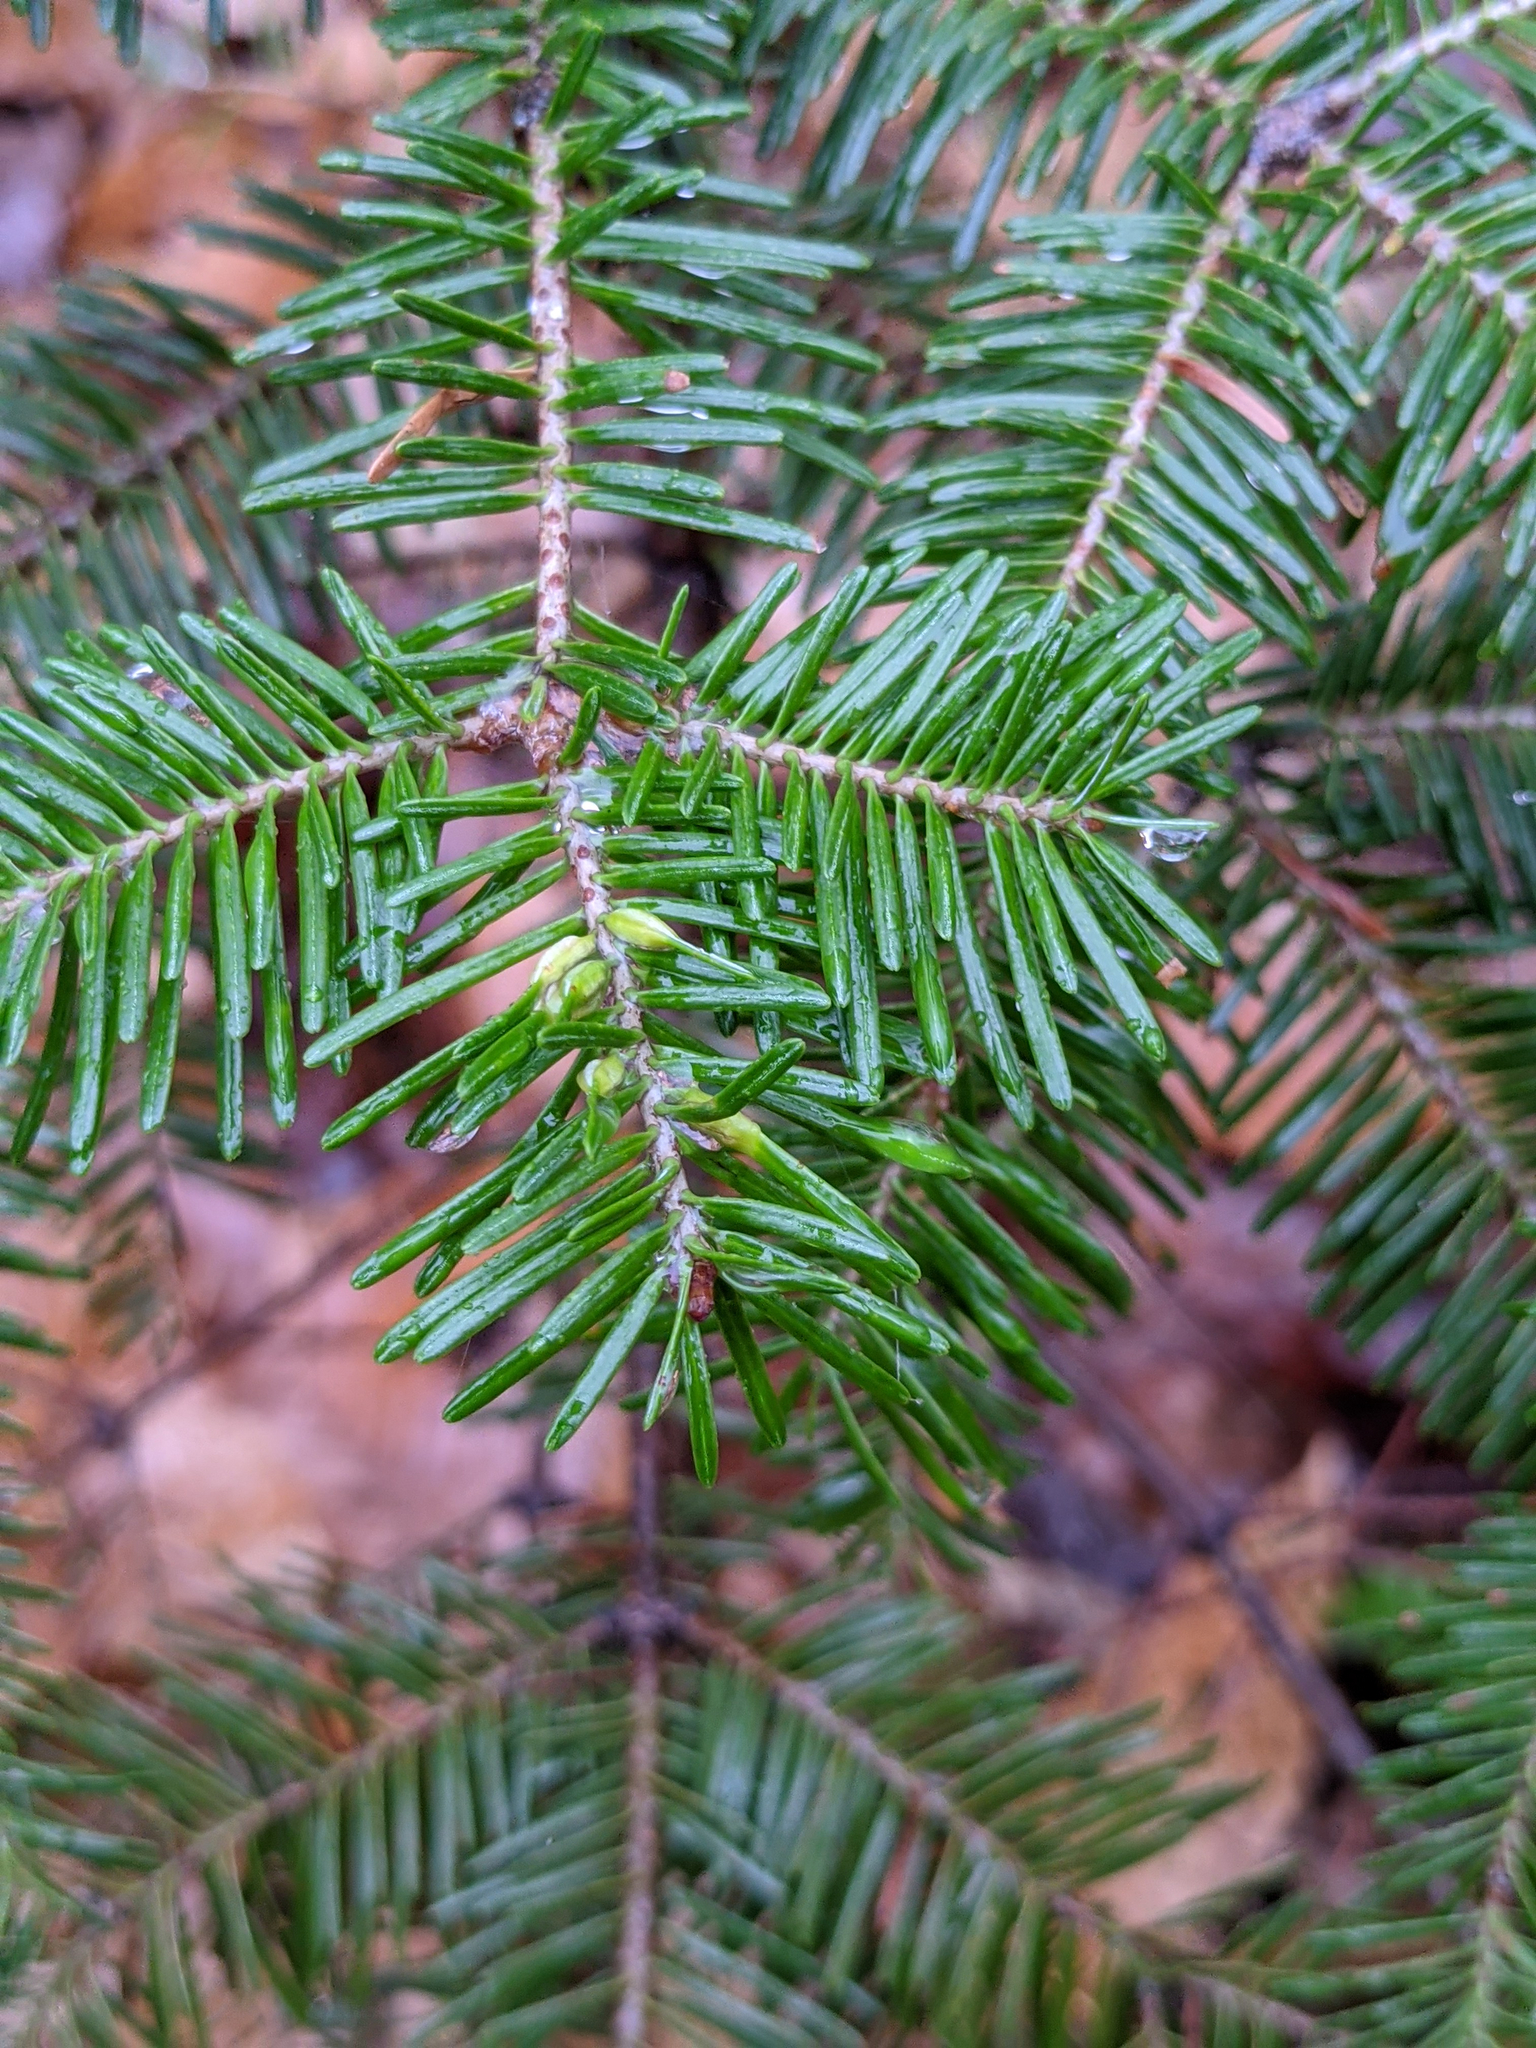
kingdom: Animalia
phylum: Arthropoda
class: Insecta
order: Diptera
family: Cecidomyiidae
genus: Paradiplosis
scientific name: Paradiplosis tumifex
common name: Gall midge
